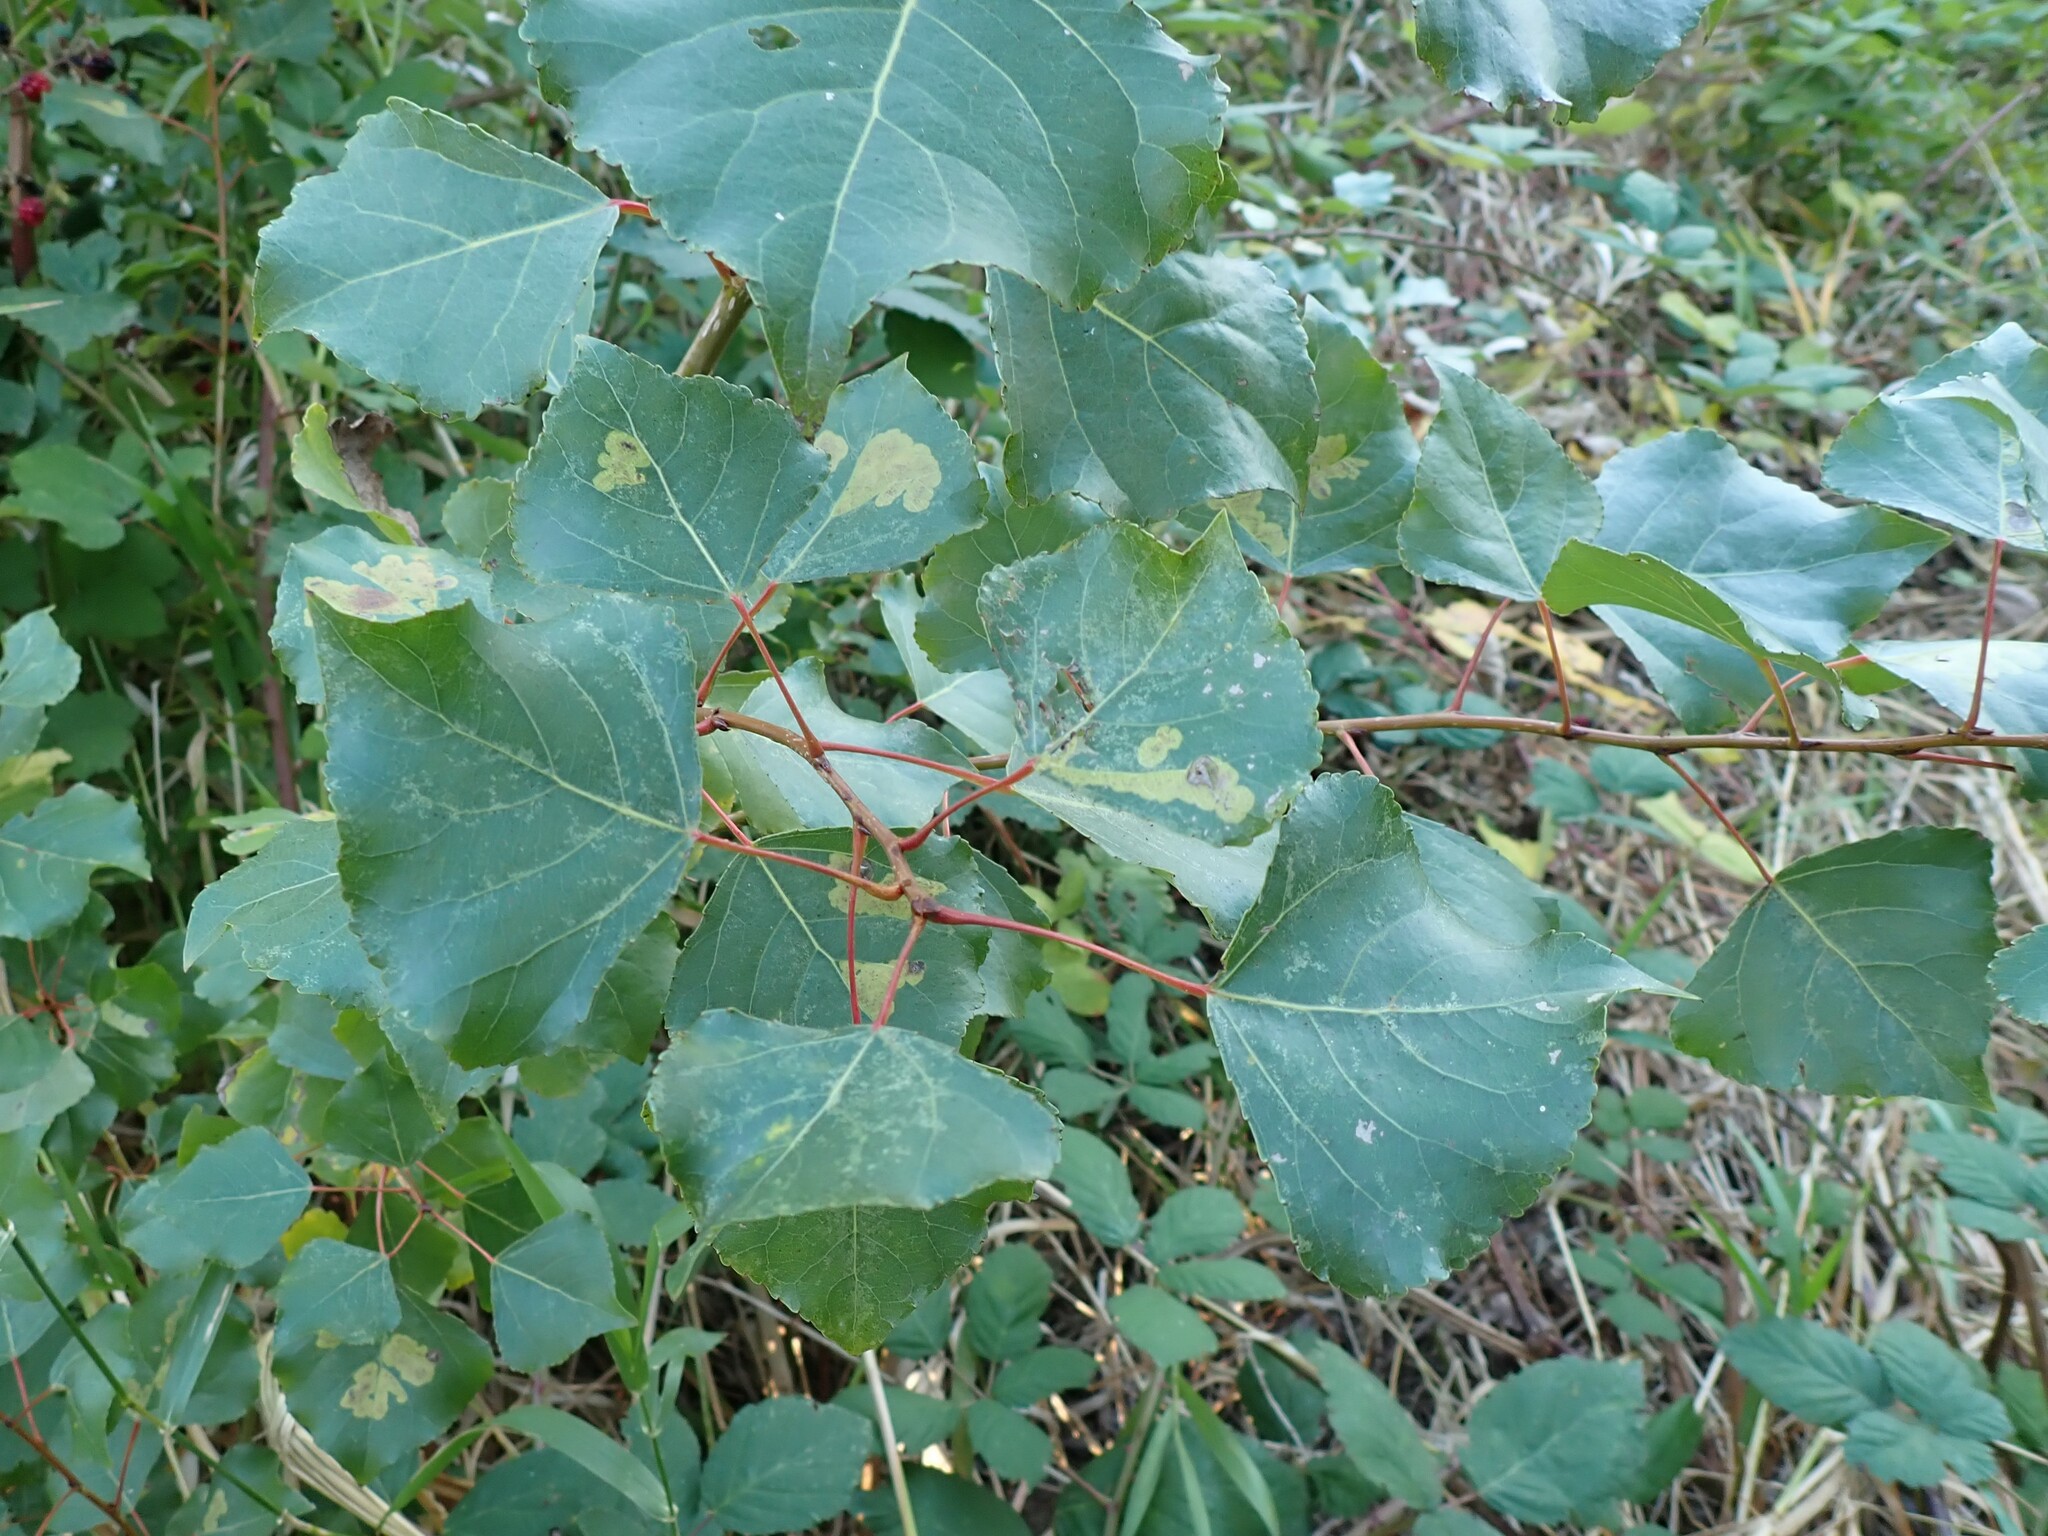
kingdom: Plantae
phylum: Tracheophyta
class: Magnoliopsida
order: Malpighiales
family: Salicaceae
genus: Populus
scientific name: Populus nigra
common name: Black poplar
